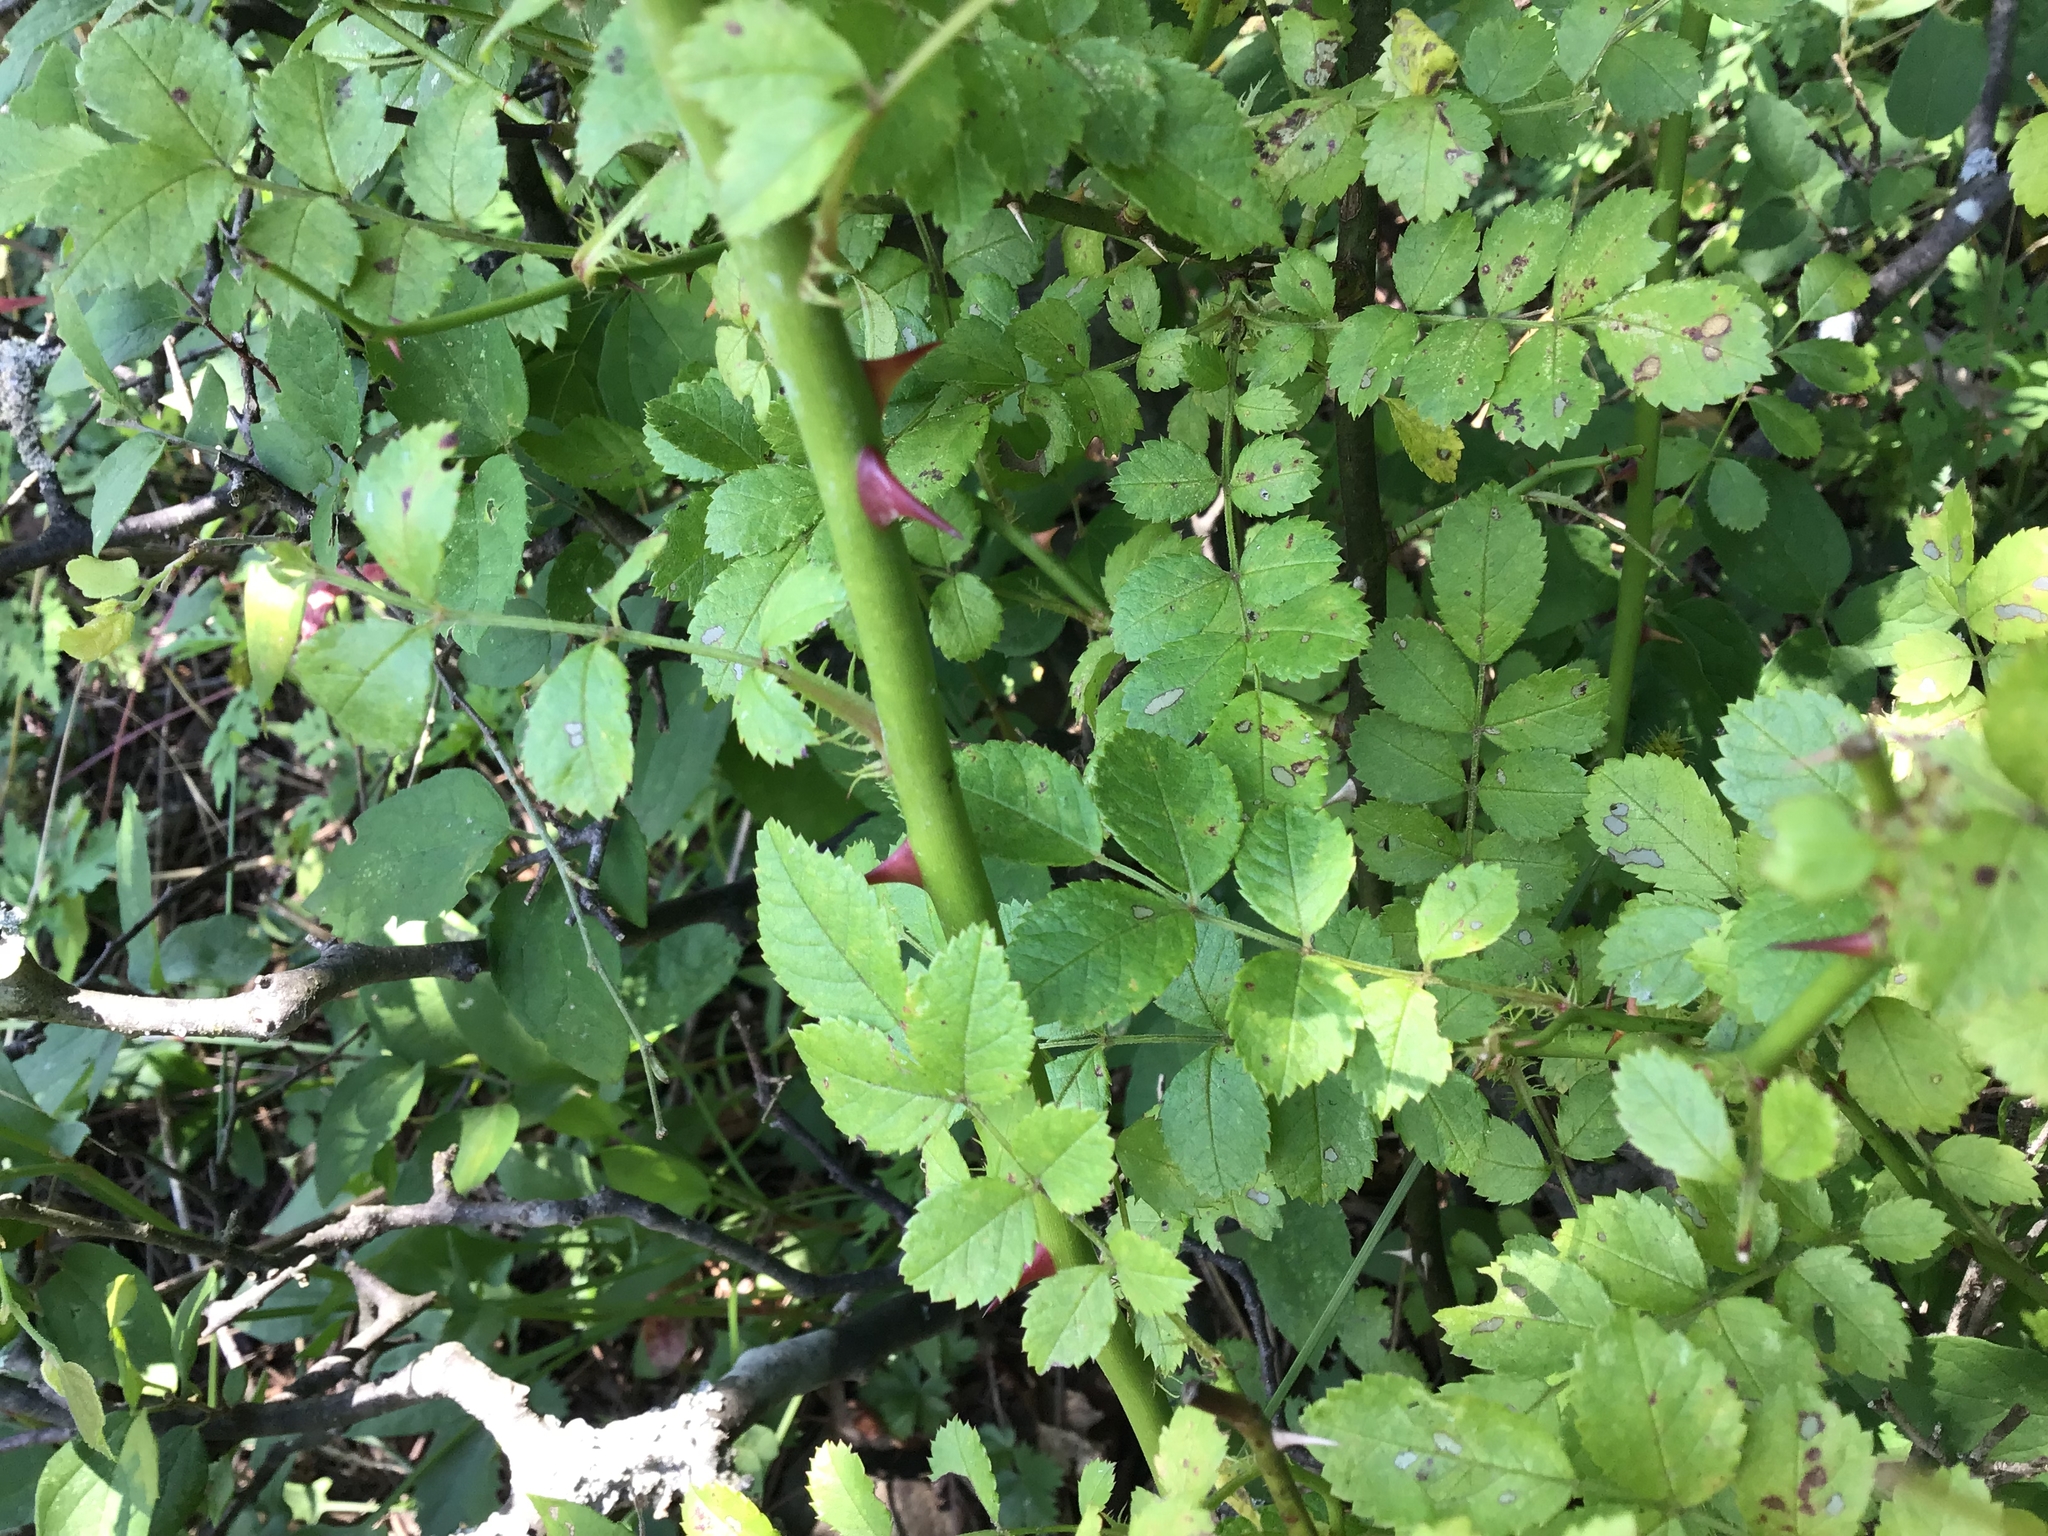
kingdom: Plantae
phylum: Tracheophyta
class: Magnoliopsida
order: Rosales
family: Rosaceae
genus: Rosa
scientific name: Rosa multiflora
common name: Multiflora rose
